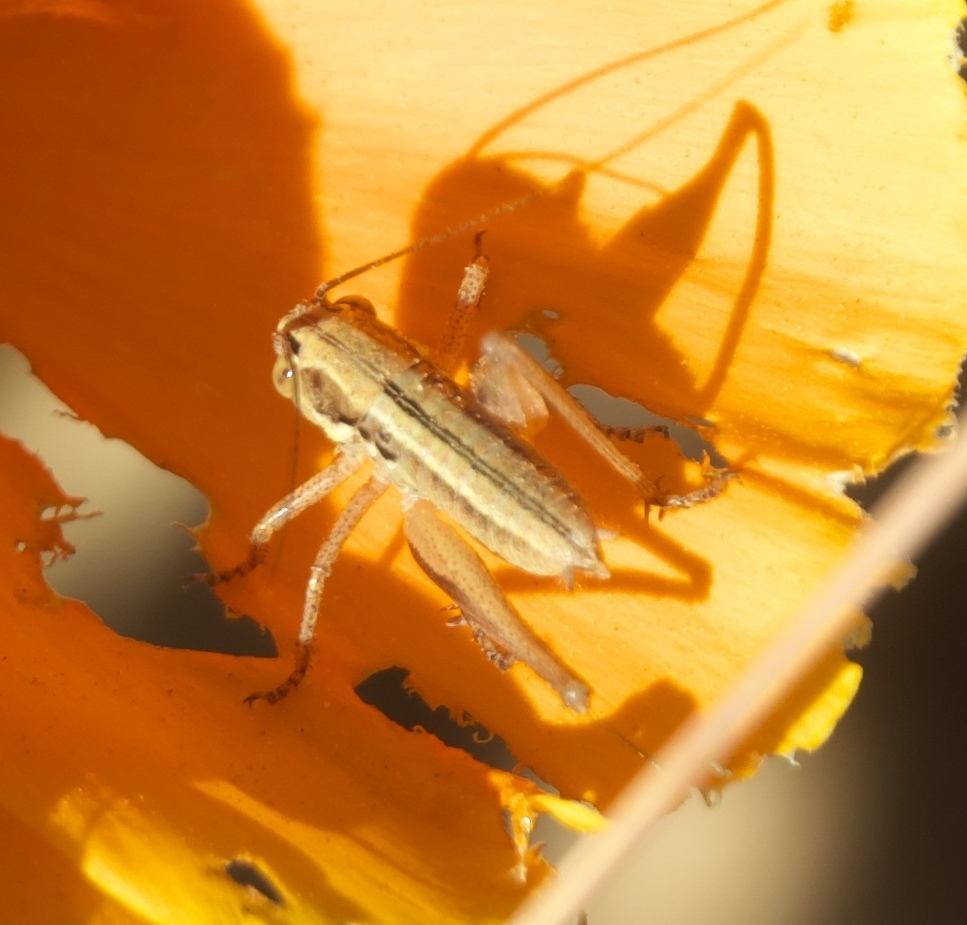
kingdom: Animalia
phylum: Arthropoda
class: Insecta
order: Orthoptera
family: Tettigoniidae
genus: Tessellana
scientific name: Tessellana tessellata
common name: Grasshopper
